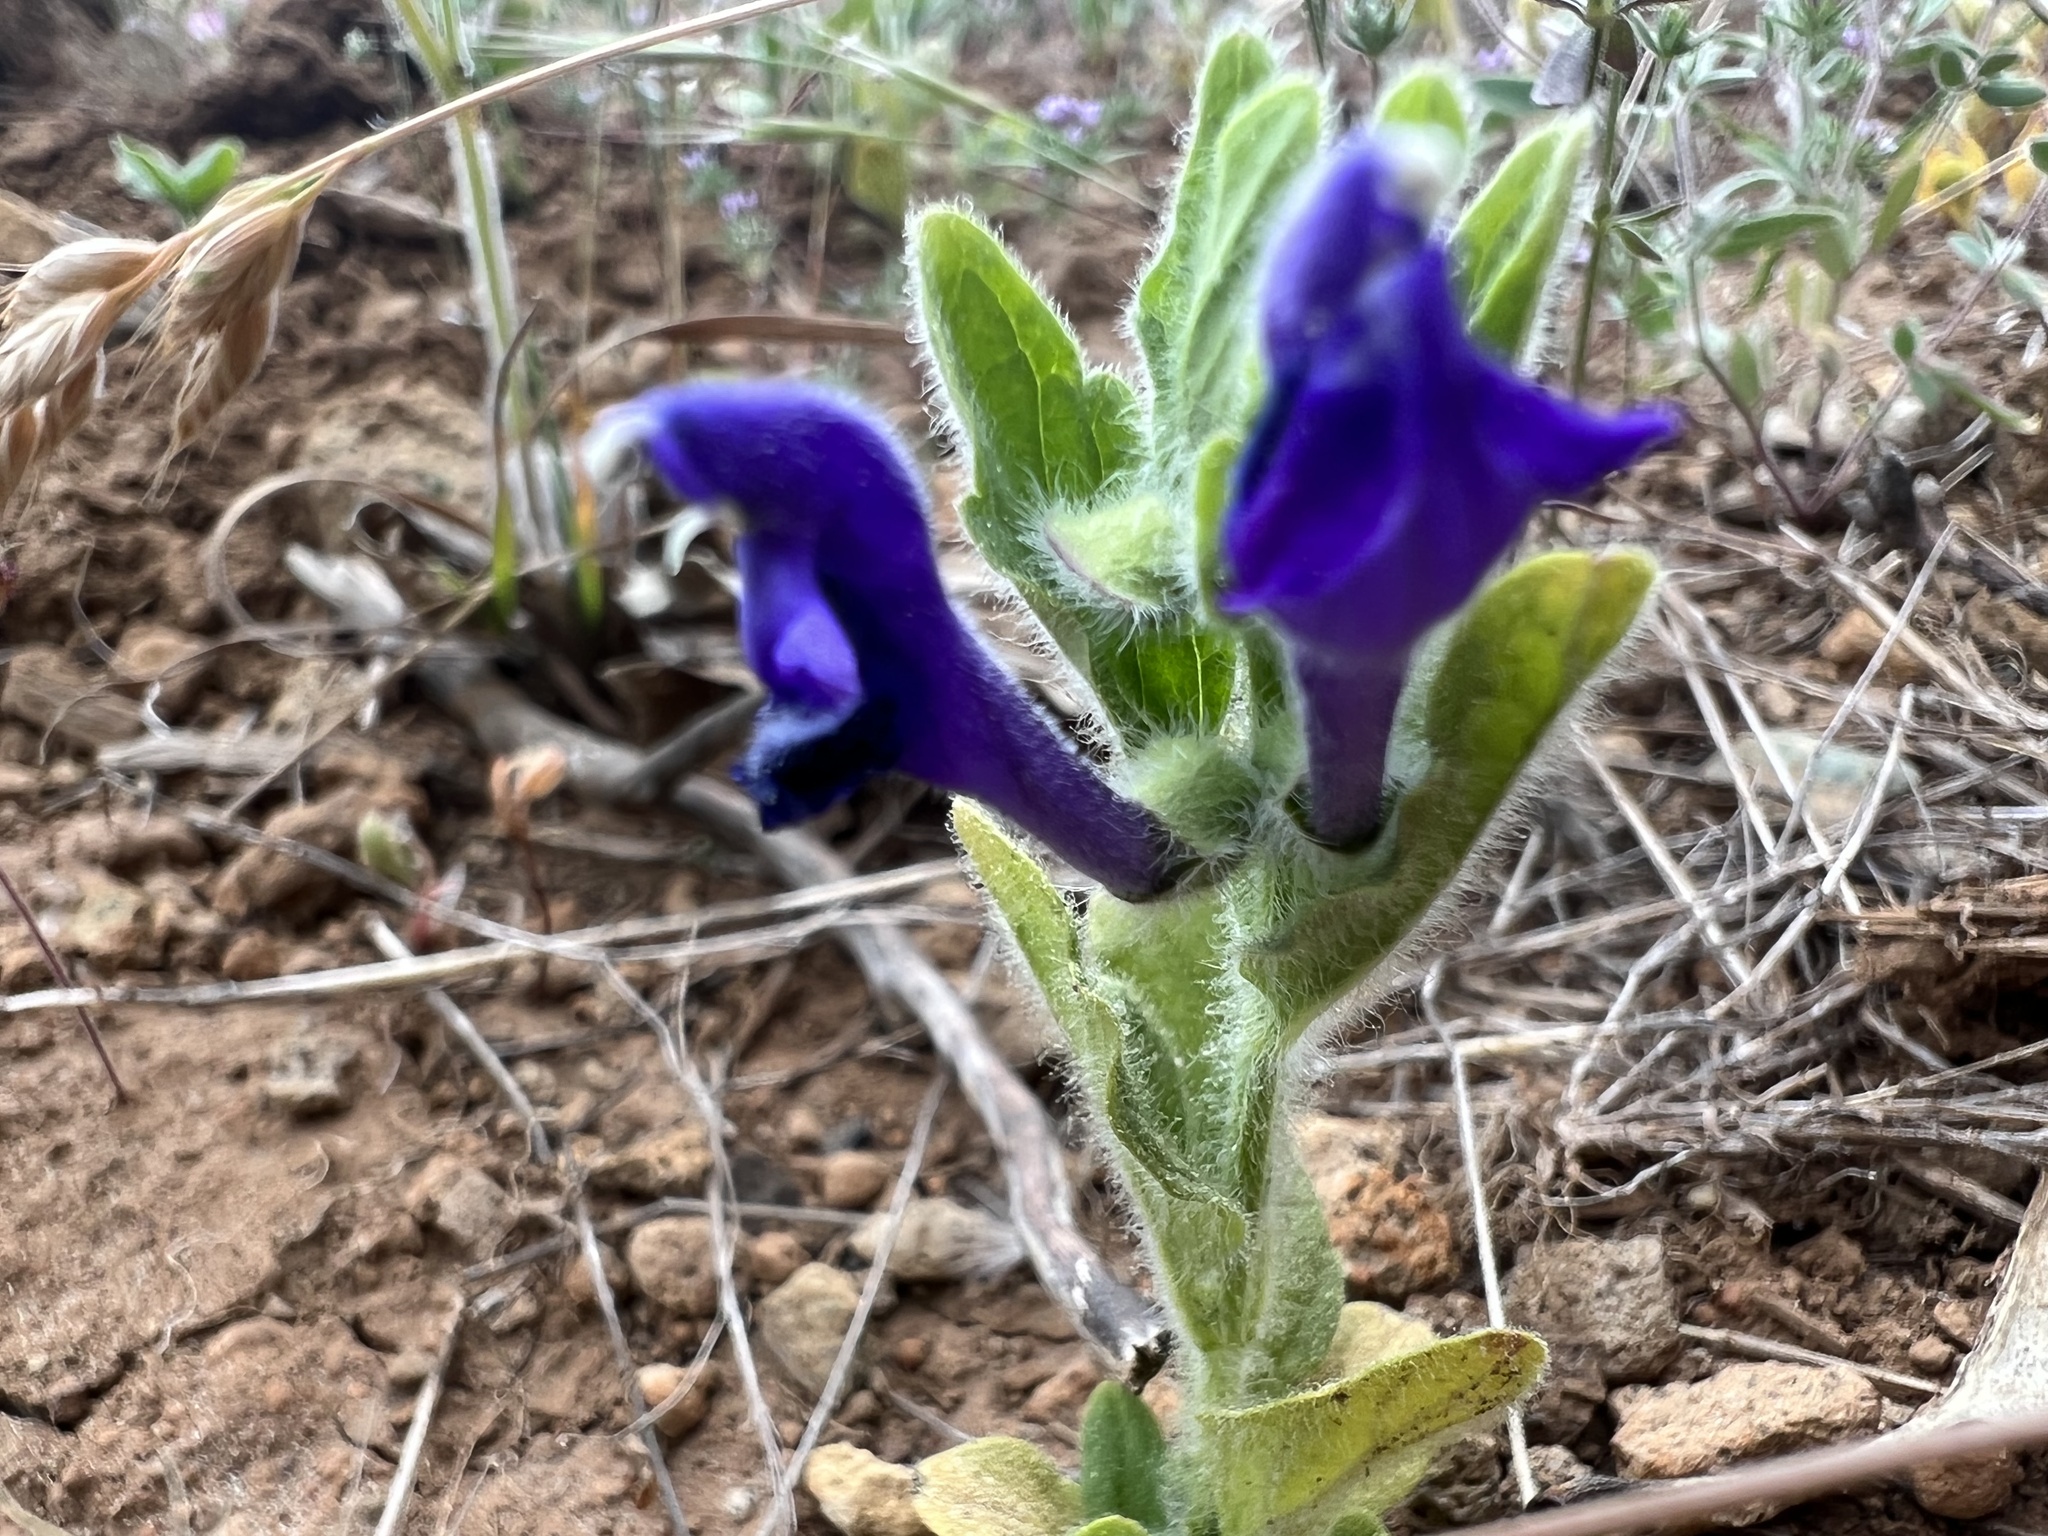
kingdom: Plantae
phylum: Tracheophyta
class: Magnoliopsida
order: Lamiales
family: Lamiaceae
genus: Scutellaria
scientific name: Scutellaria tuberosa
